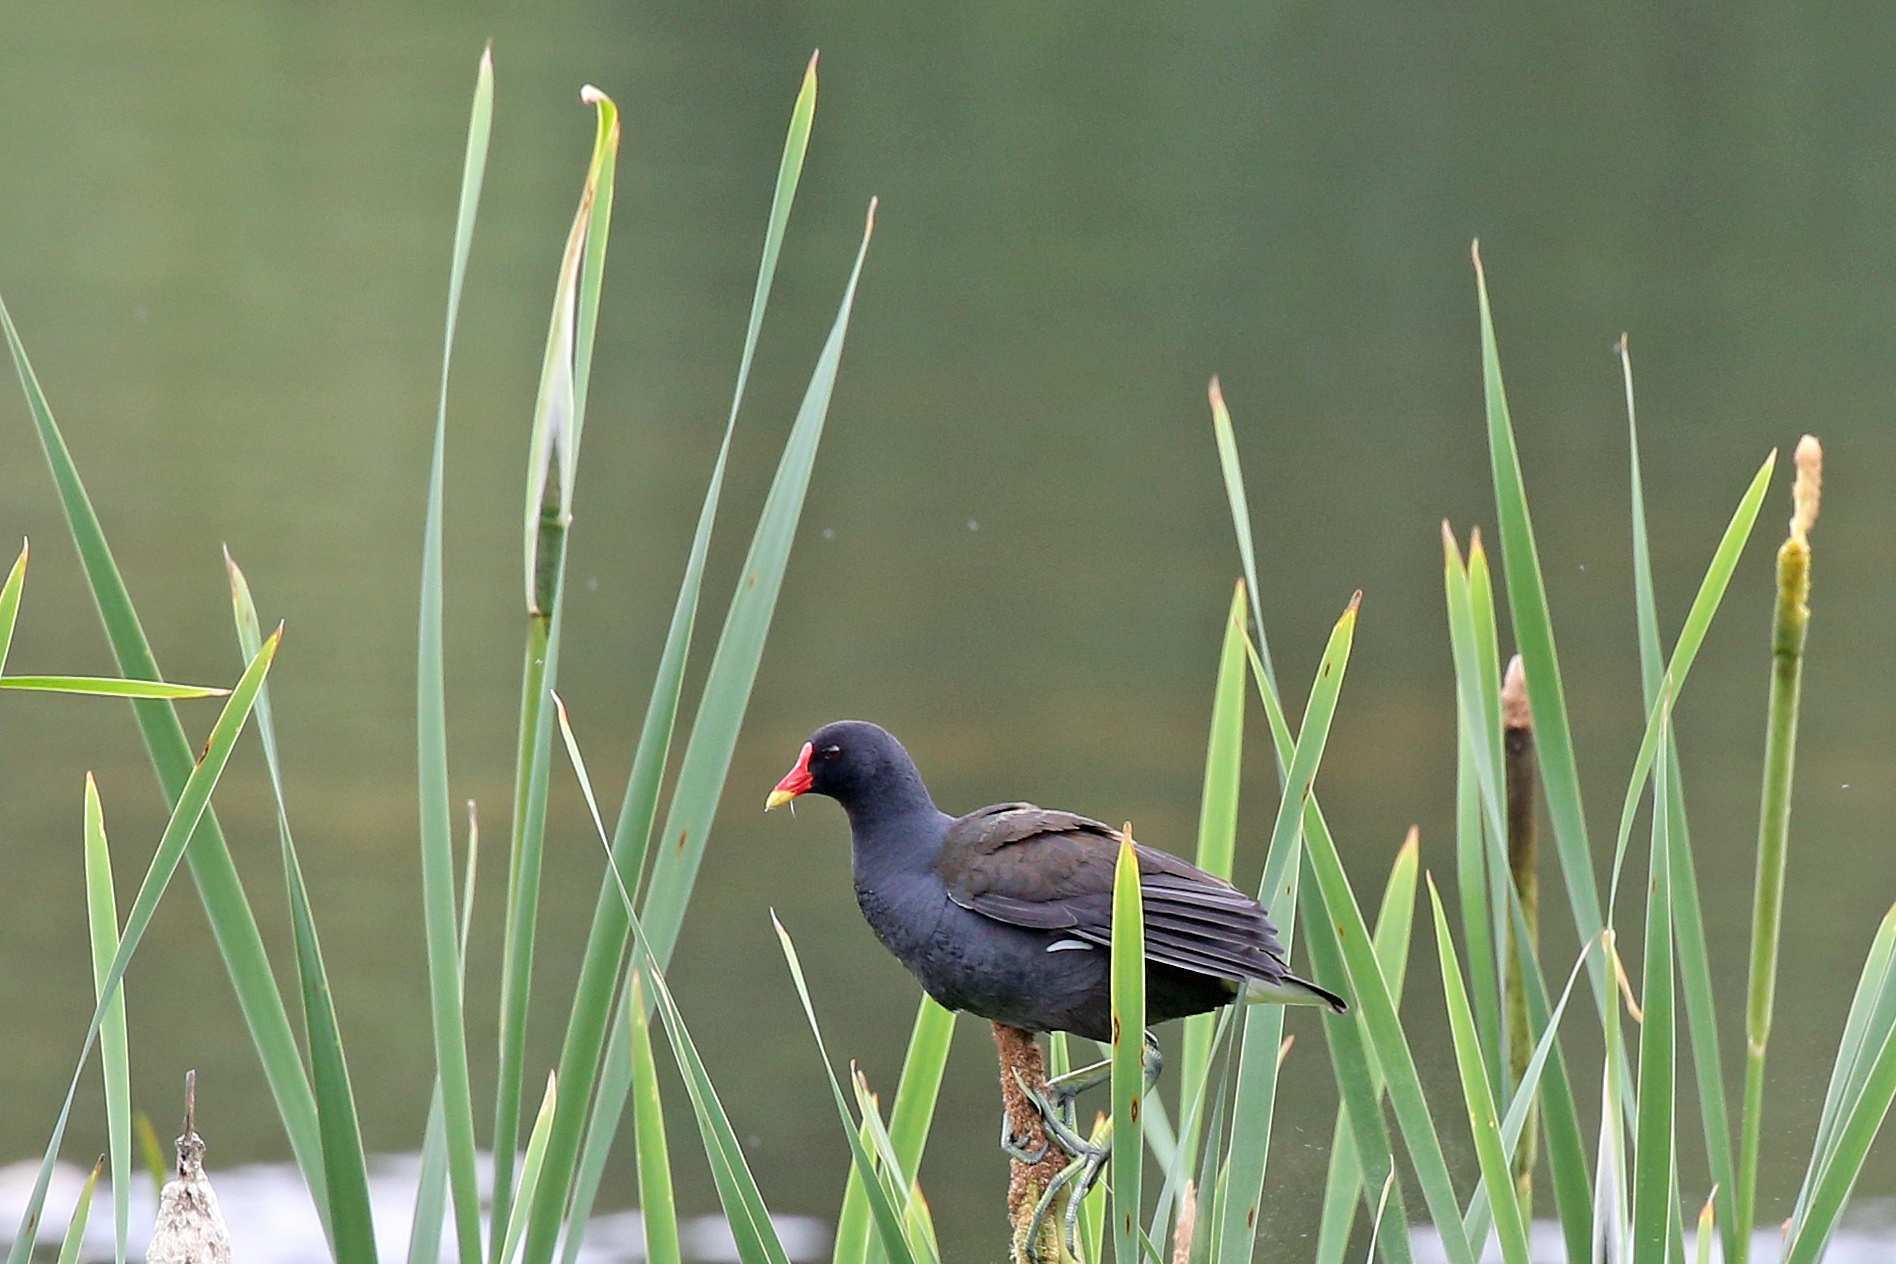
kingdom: Animalia
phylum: Chordata
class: Aves
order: Gruiformes
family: Rallidae
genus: Gallinula
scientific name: Gallinula chloropus
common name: Common moorhen
